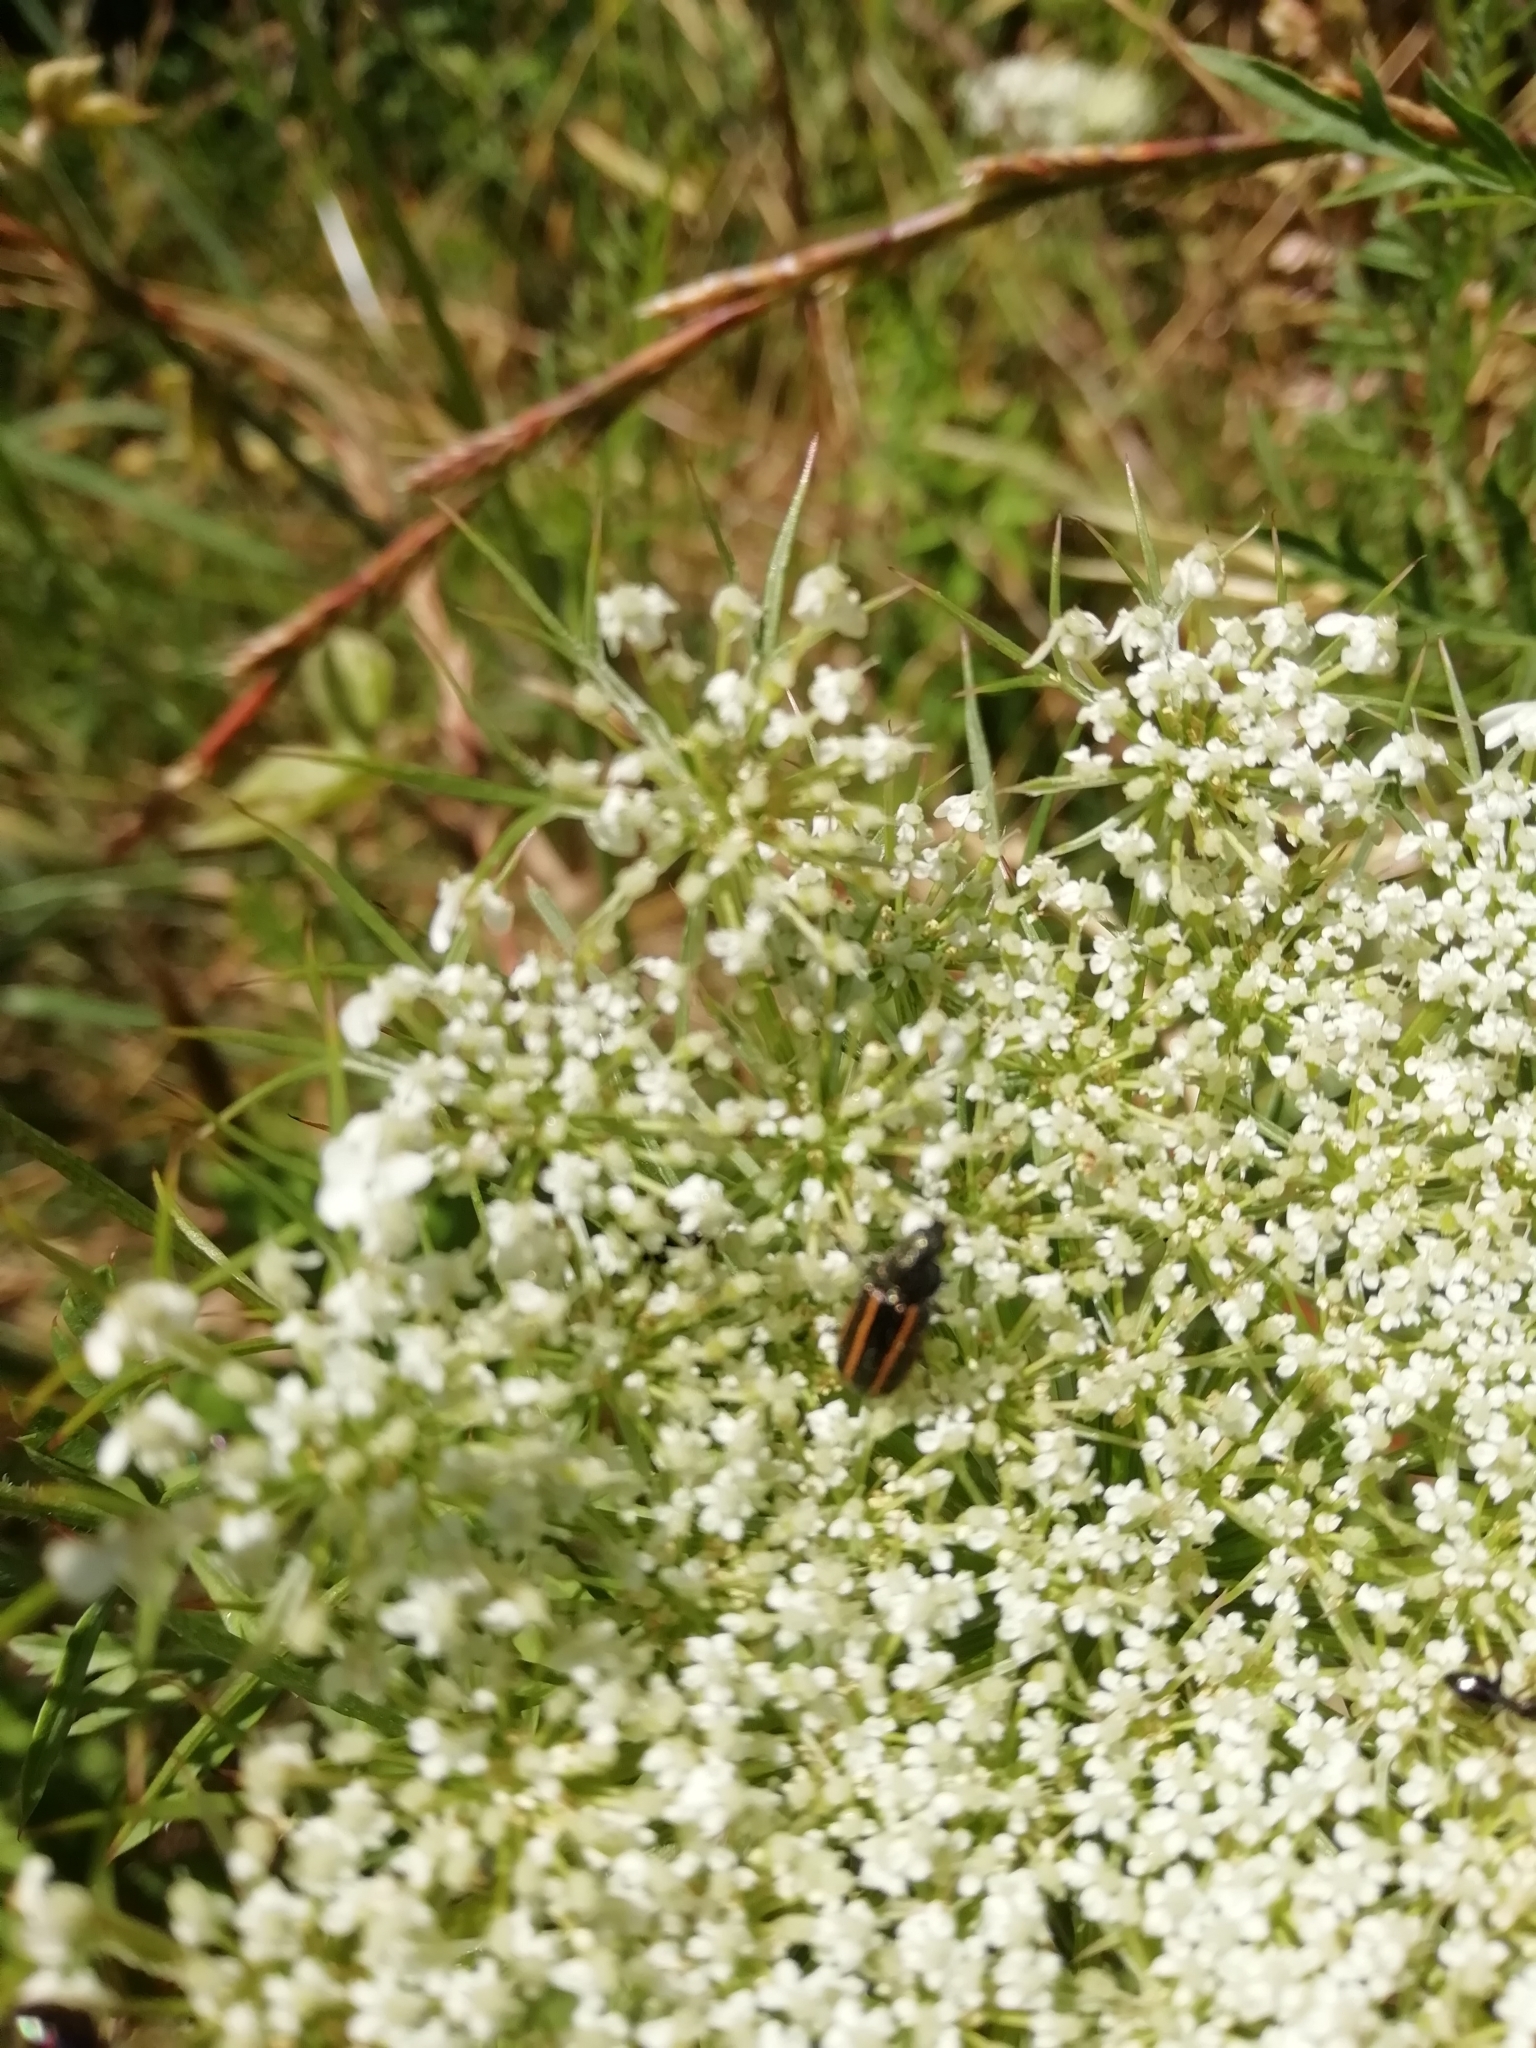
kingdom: Animalia
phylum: Arthropoda
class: Insecta
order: Coleoptera
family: Melyridae
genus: Astylus
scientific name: Astylus
